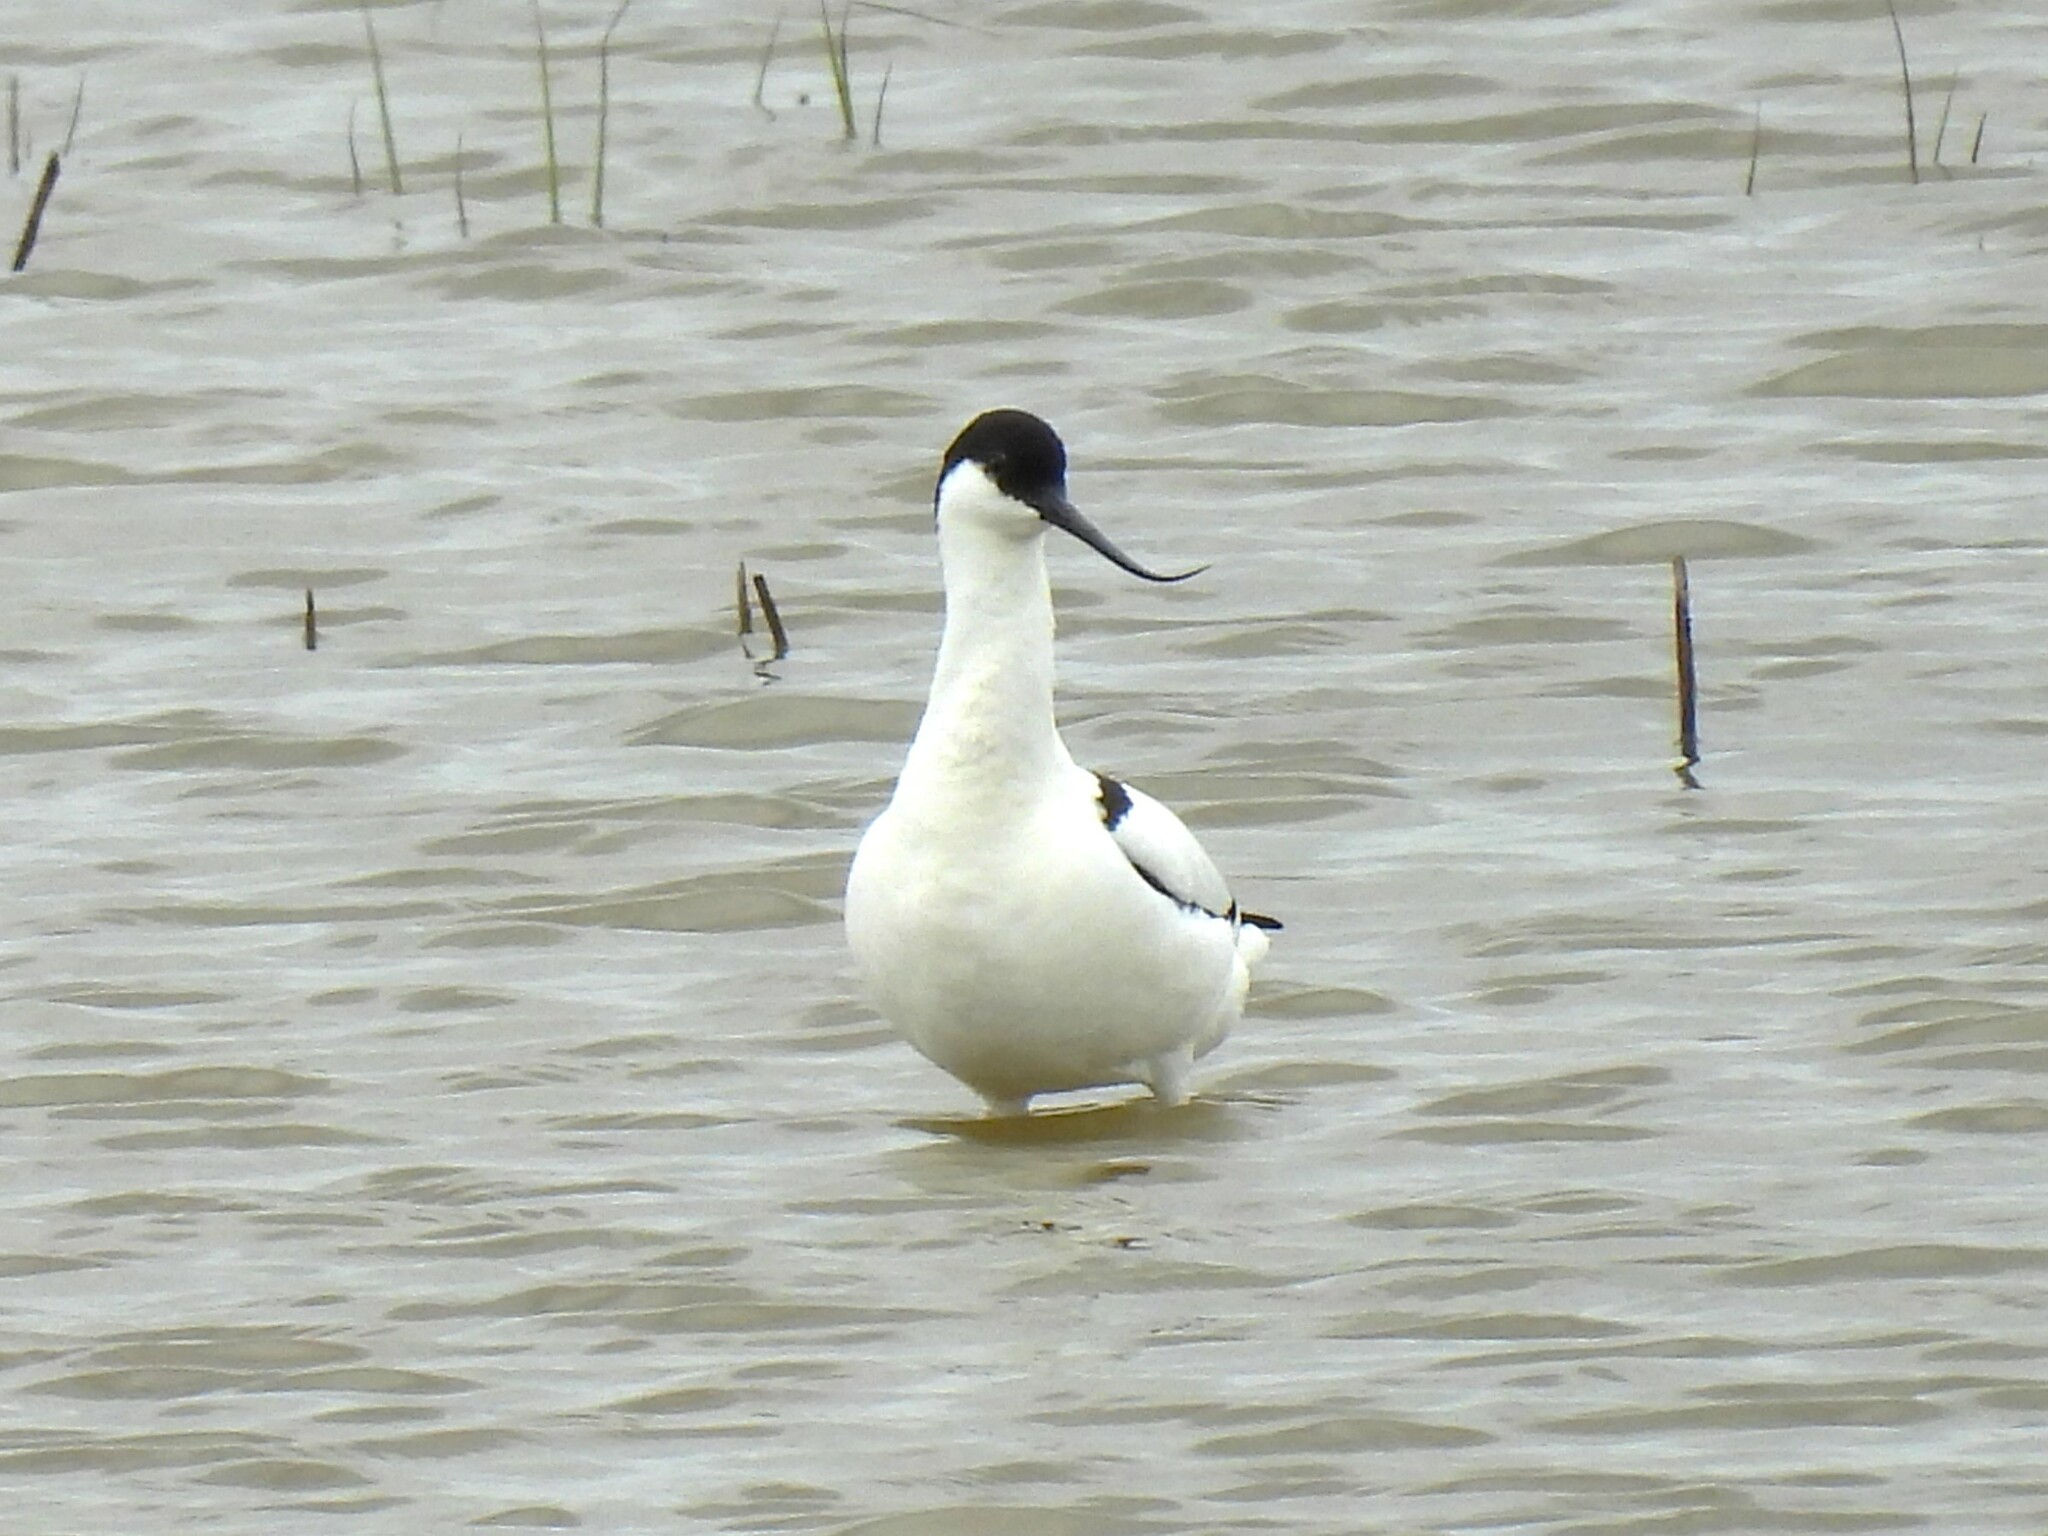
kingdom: Animalia
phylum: Chordata
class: Aves
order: Charadriiformes
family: Recurvirostridae
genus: Recurvirostra
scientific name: Recurvirostra avosetta
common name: Pied avocet
